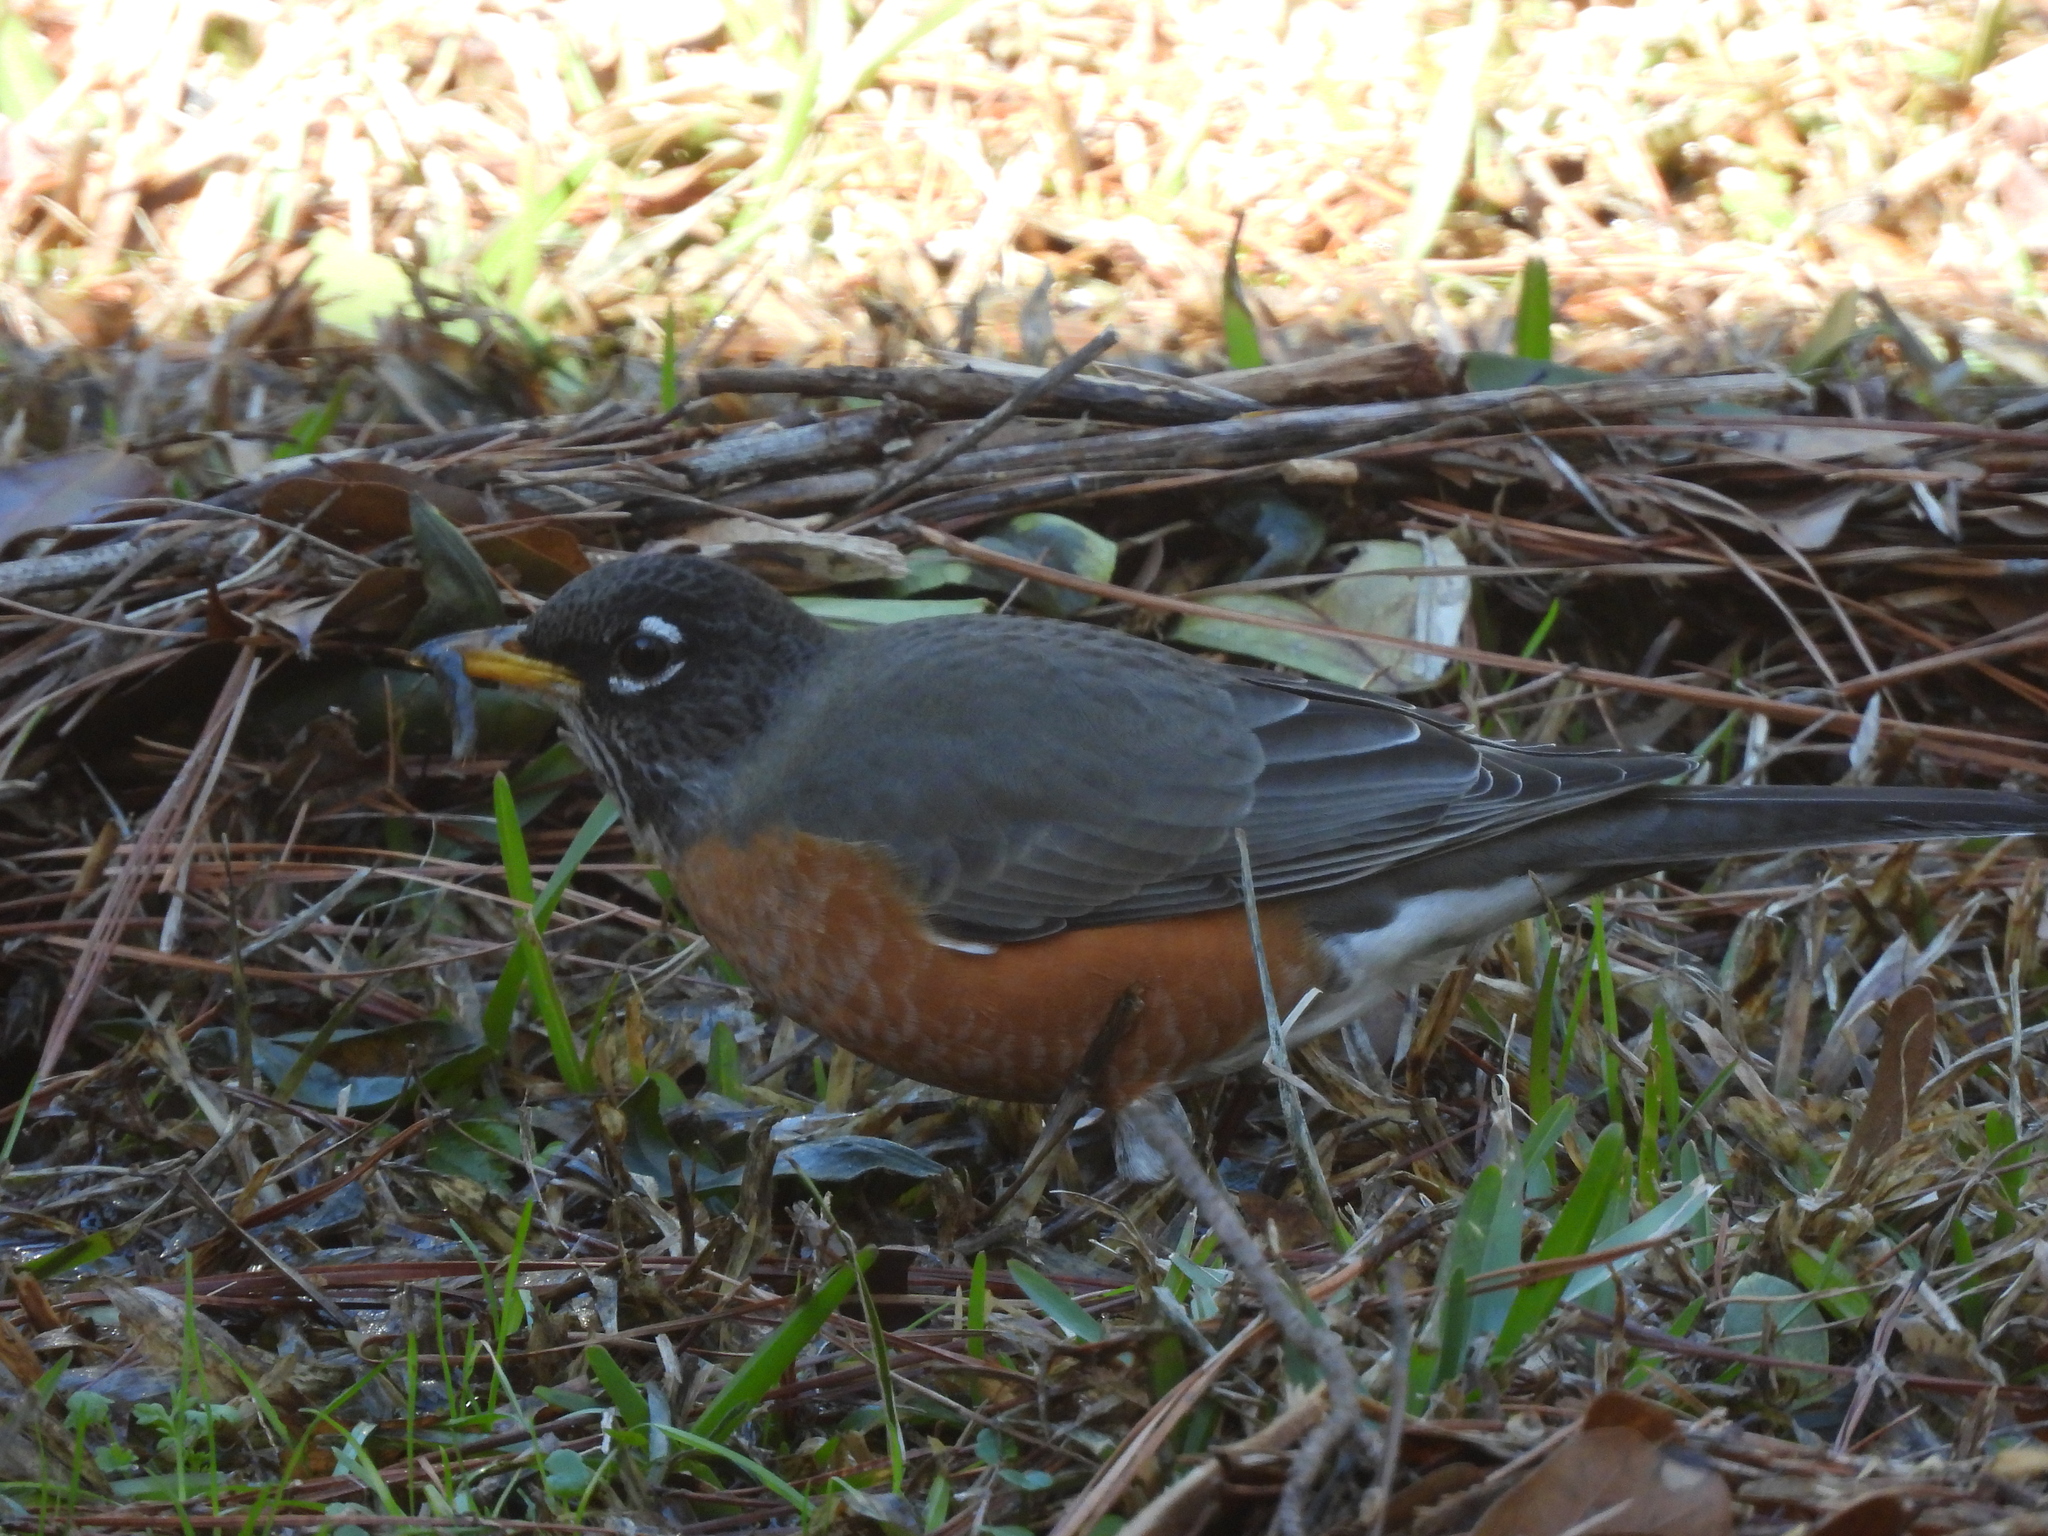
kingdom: Animalia
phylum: Chordata
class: Aves
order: Passeriformes
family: Turdidae
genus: Turdus
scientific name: Turdus migratorius
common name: American robin
